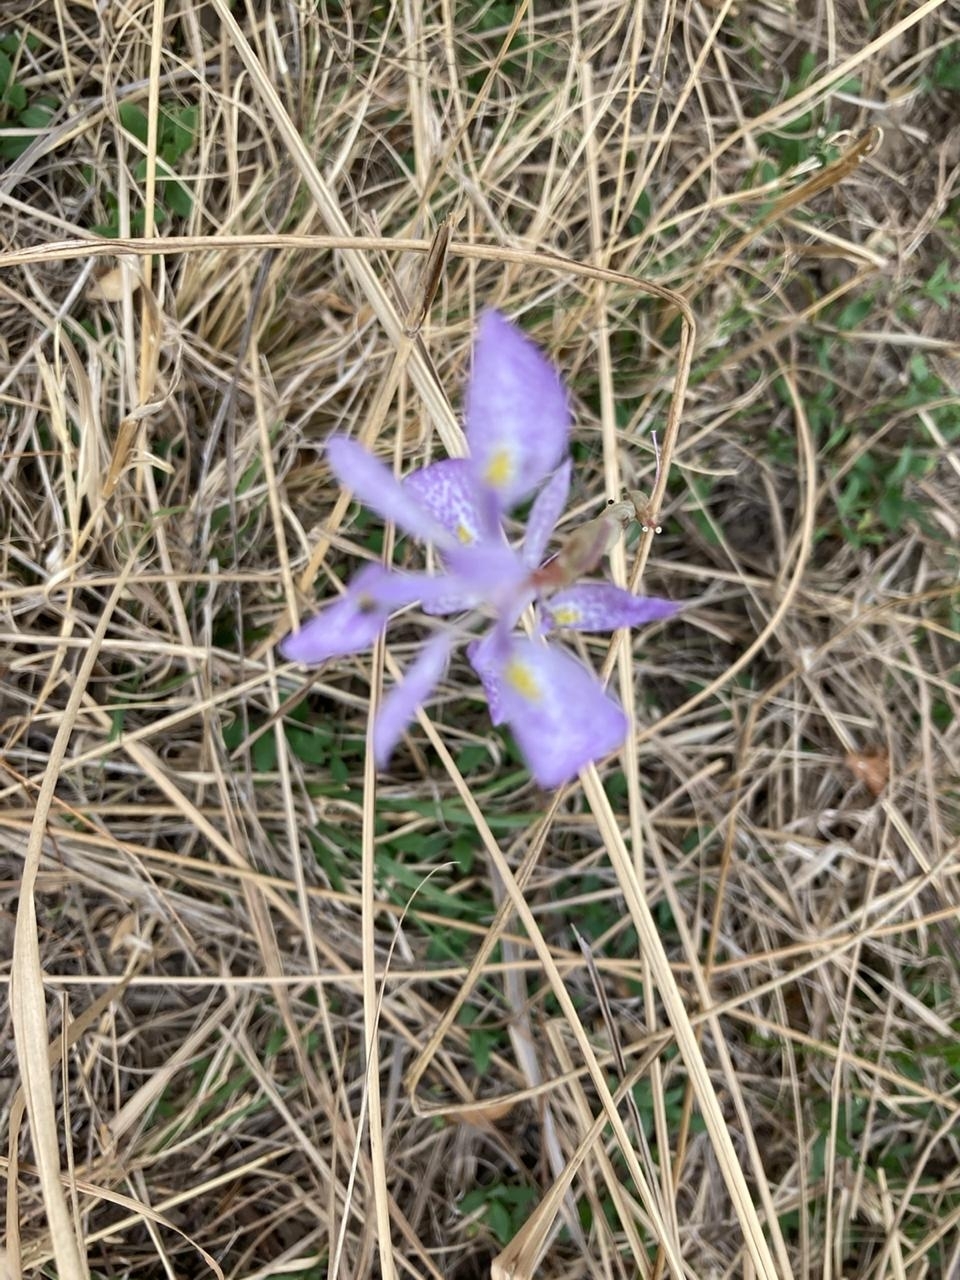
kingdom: Plantae
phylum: Tracheophyta
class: Liliopsida
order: Asparagales
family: Iridaceae
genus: Moraea
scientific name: Moraea simulans
